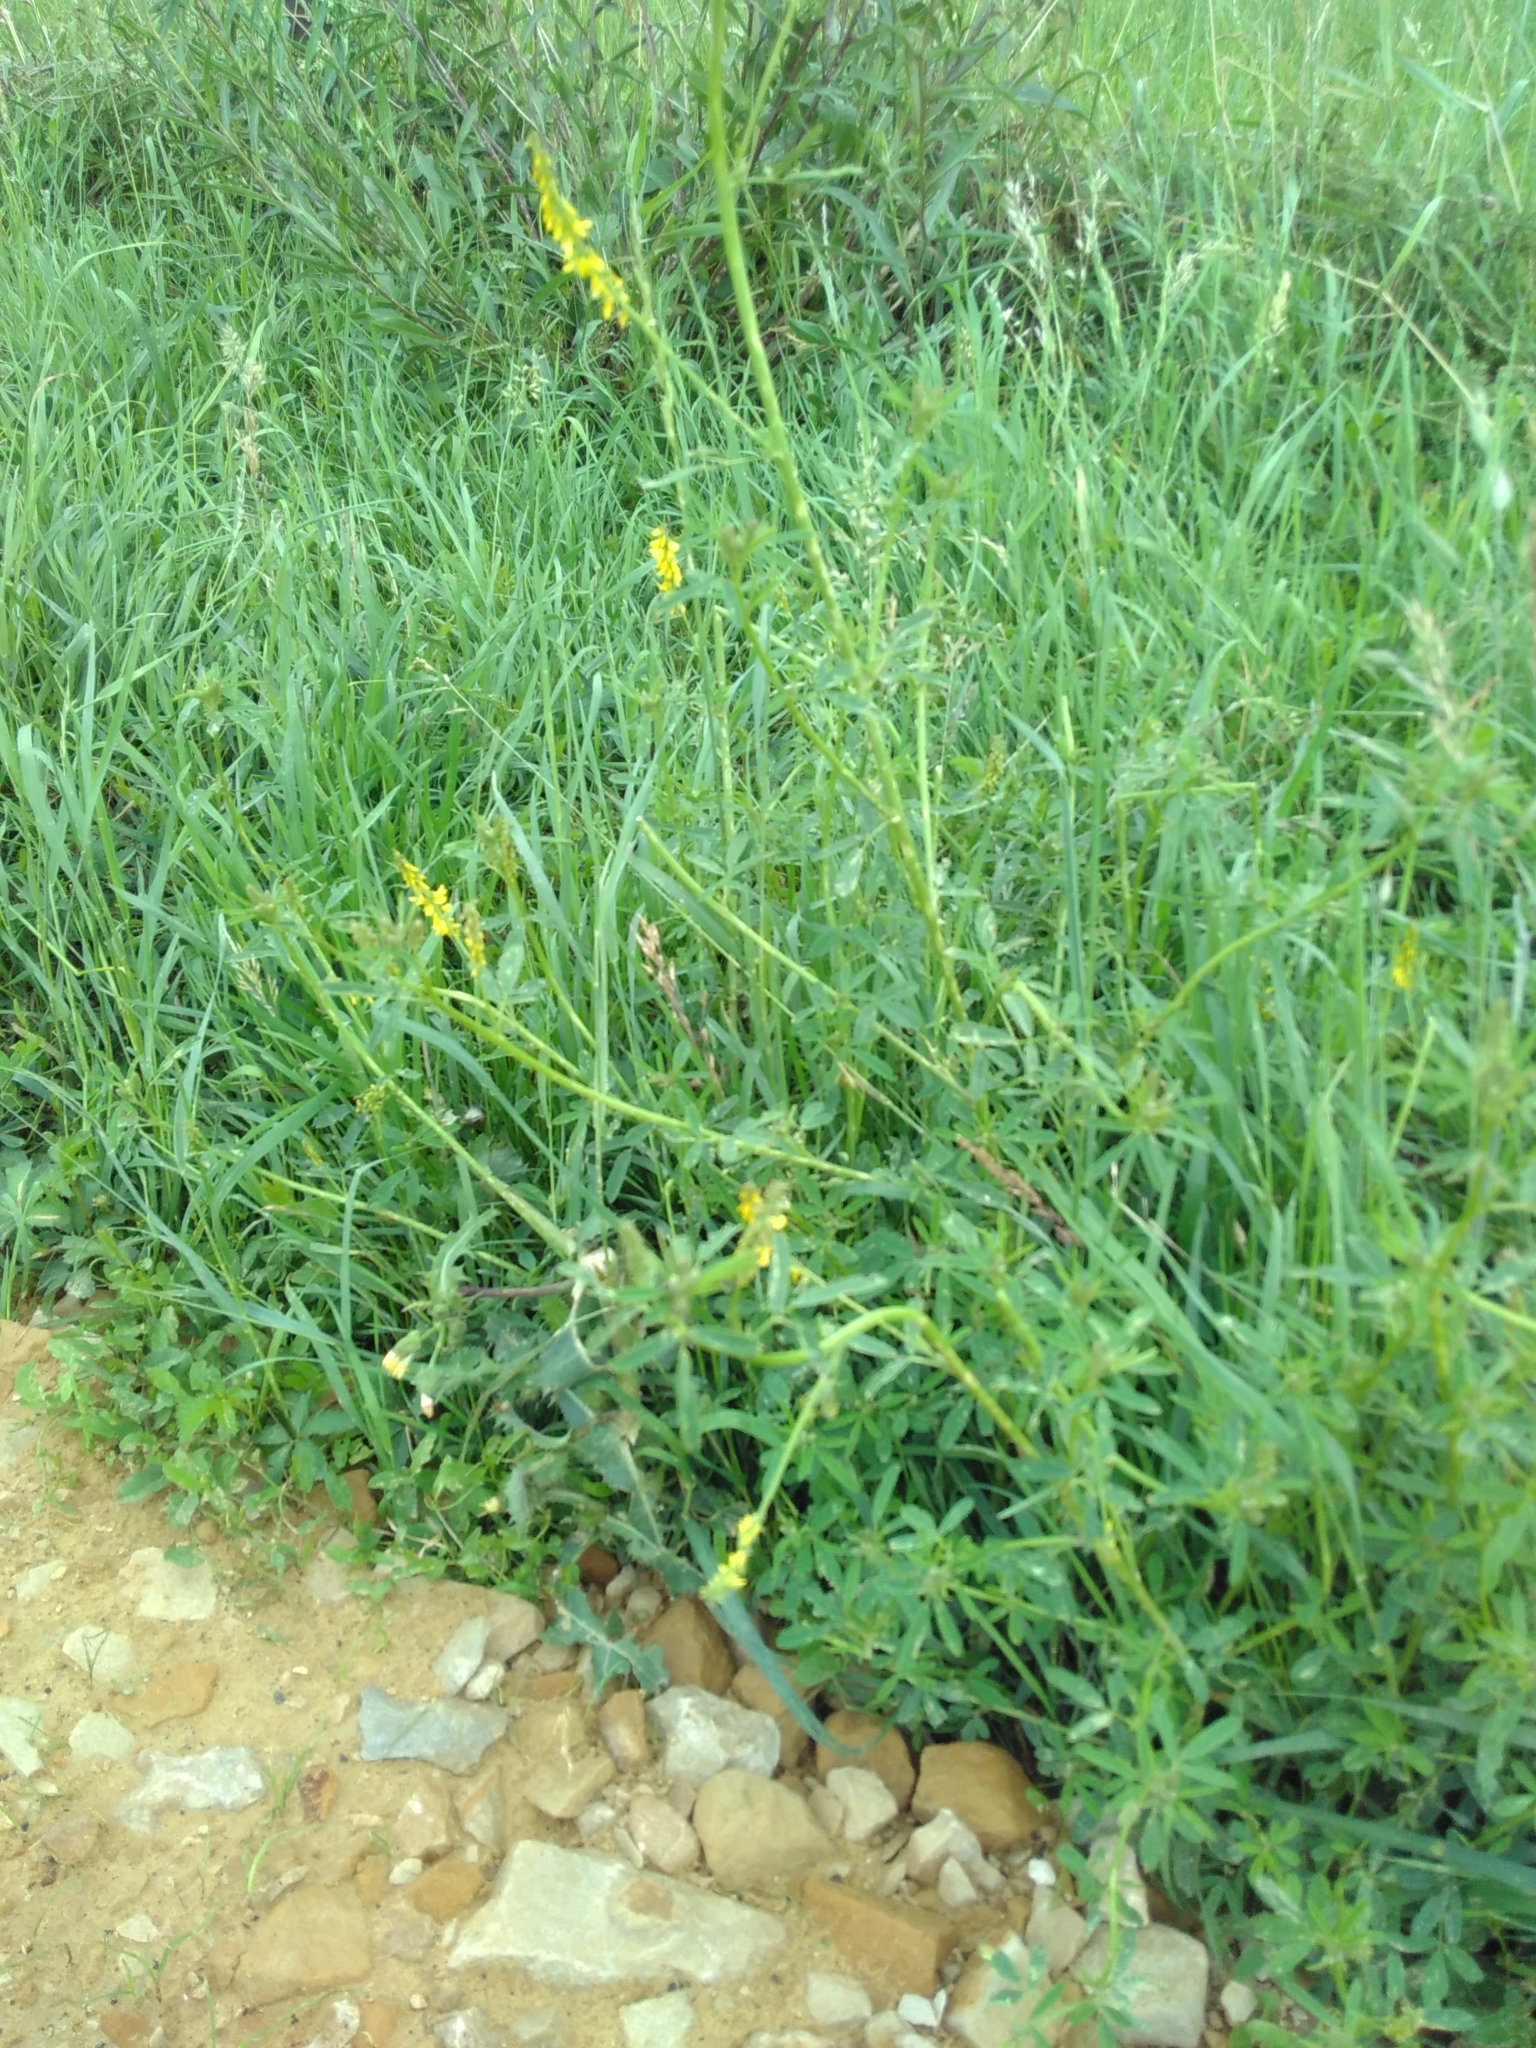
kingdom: Plantae
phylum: Tracheophyta
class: Magnoliopsida
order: Fabales
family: Fabaceae
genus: Melilotus
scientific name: Melilotus officinalis
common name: Sweetclover
